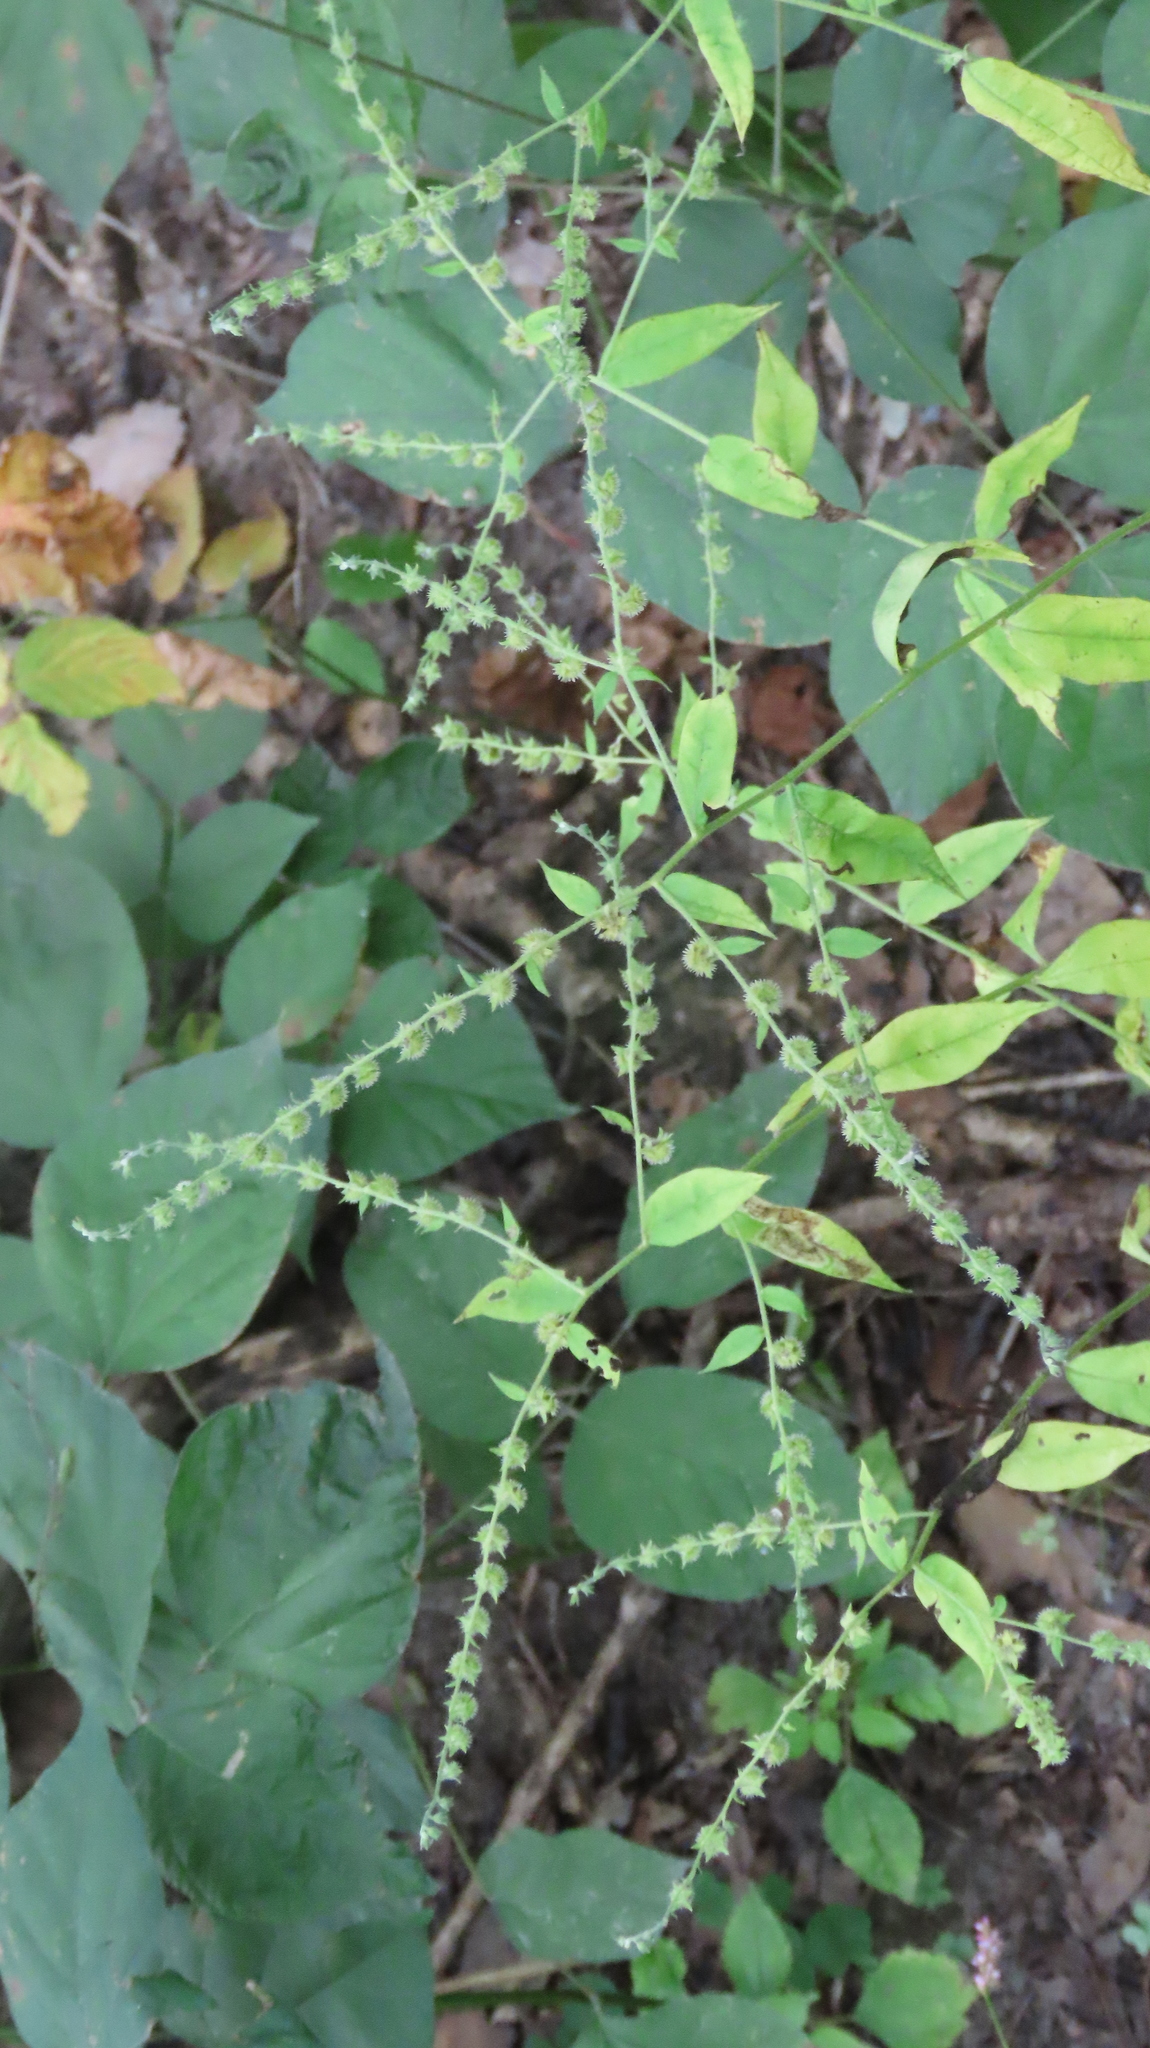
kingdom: Plantae
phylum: Tracheophyta
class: Magnoliopsida
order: Boraginales
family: Boraginaceae
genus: Hackelia
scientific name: Hackelia virginiana
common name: Beggar's-lice
